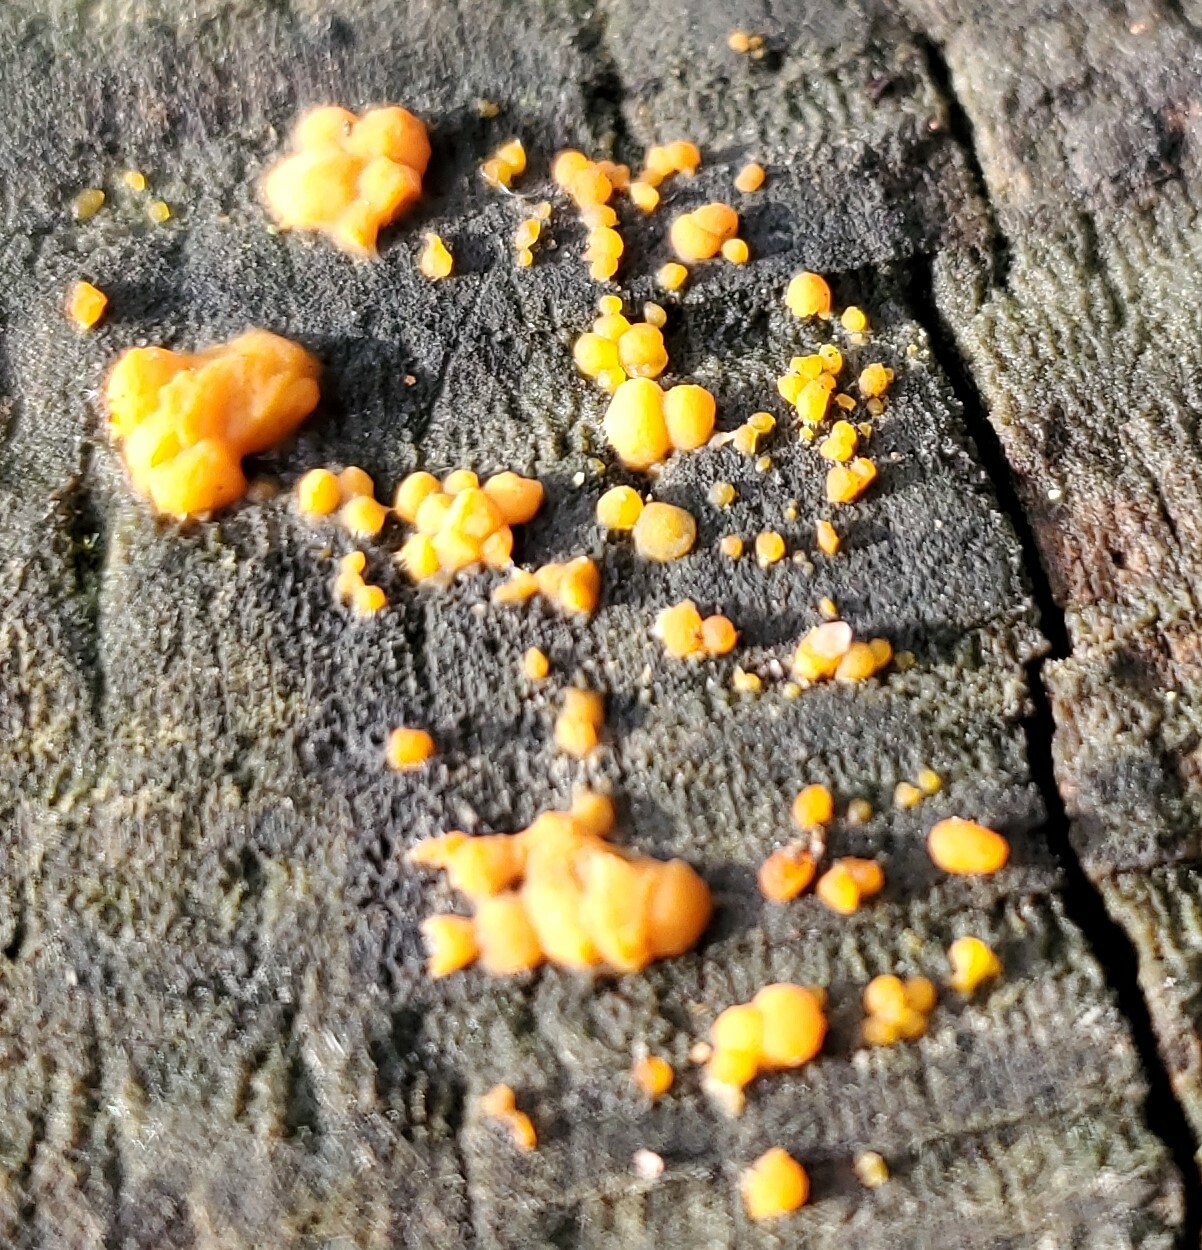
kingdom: Fungi
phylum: Basidiomycota
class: Dacrymycetes
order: Dacrymycetales
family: Dacrymycetaceae
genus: Dacrymyces
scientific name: Dacrymyces stillatus
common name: Common jelly spot
